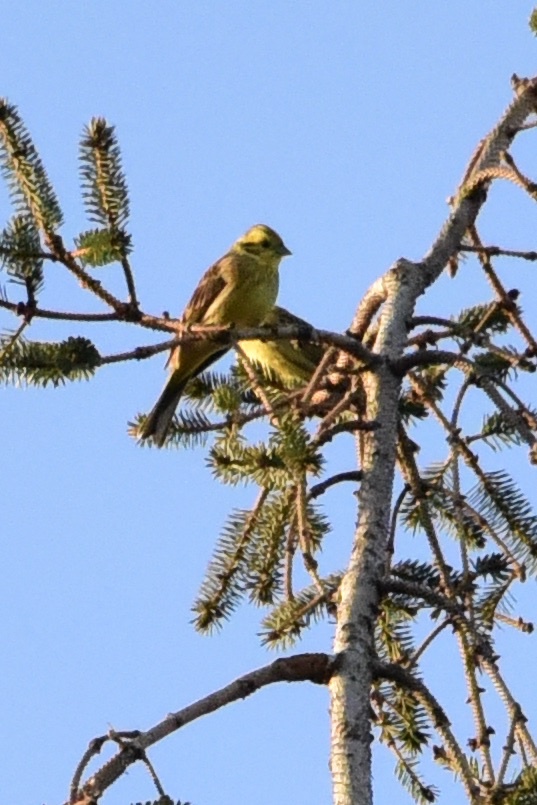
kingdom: Animalia
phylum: Chordata
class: Aves
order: Passeriformes
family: Emberizidae
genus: Emberiza
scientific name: Emberiza citrinella
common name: Yellowhammer
